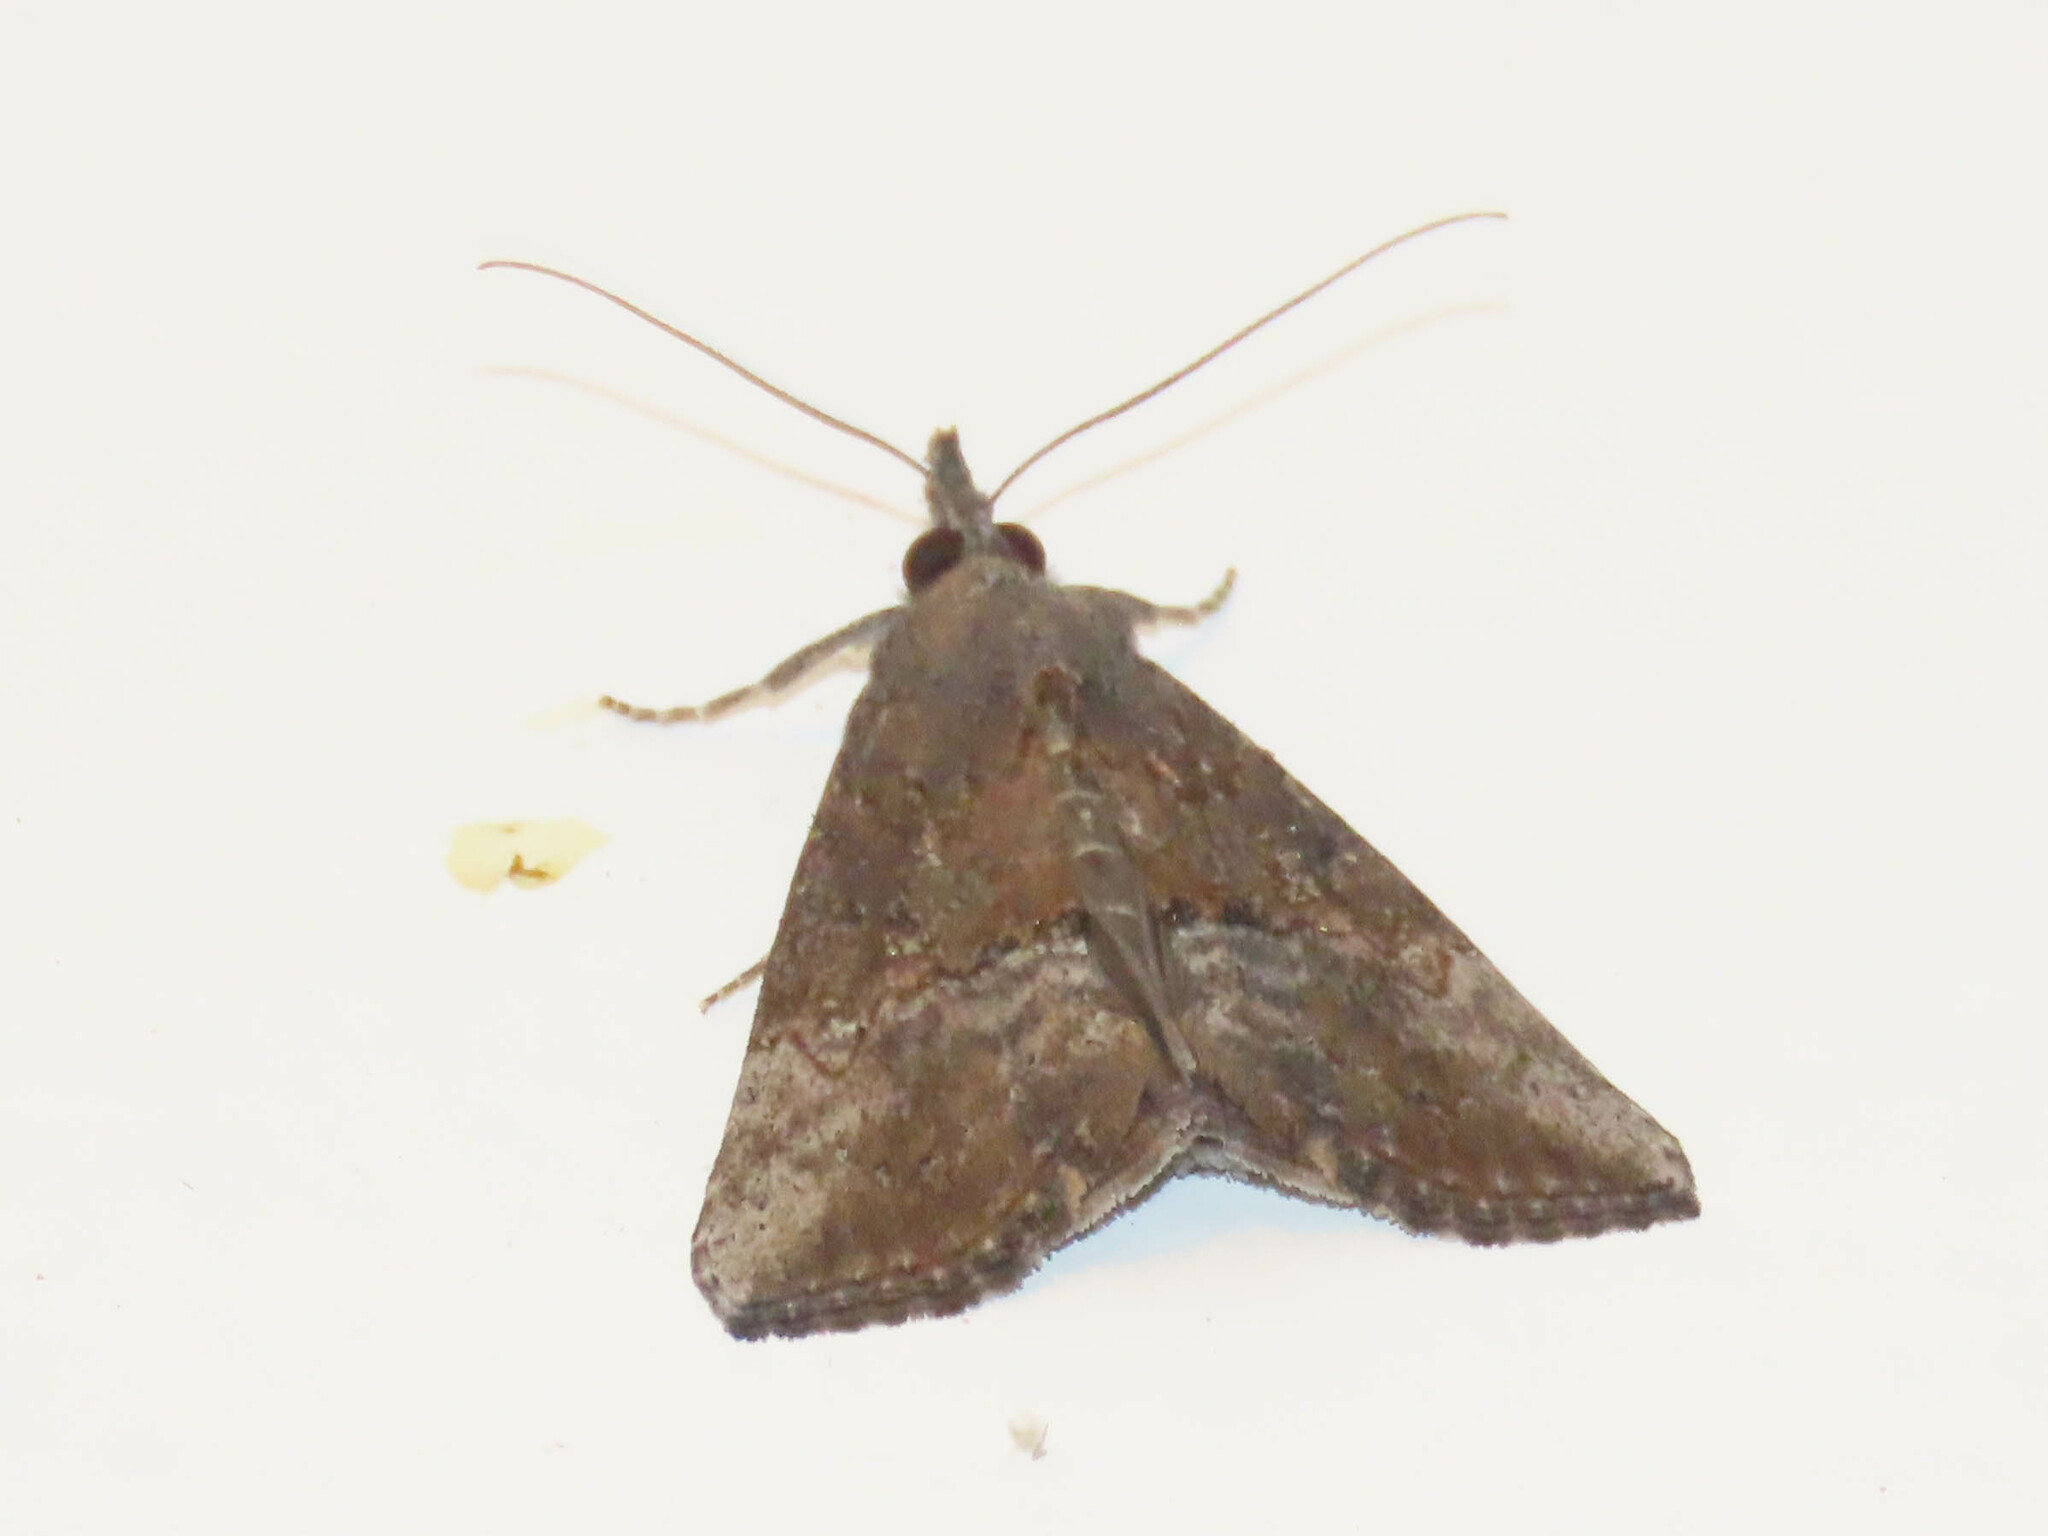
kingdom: Animalia
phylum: Arthropoda
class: Insecta
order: Lepidoptera
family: Erebidae
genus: Hypena
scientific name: Hypena scabra
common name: Green cloverworm
